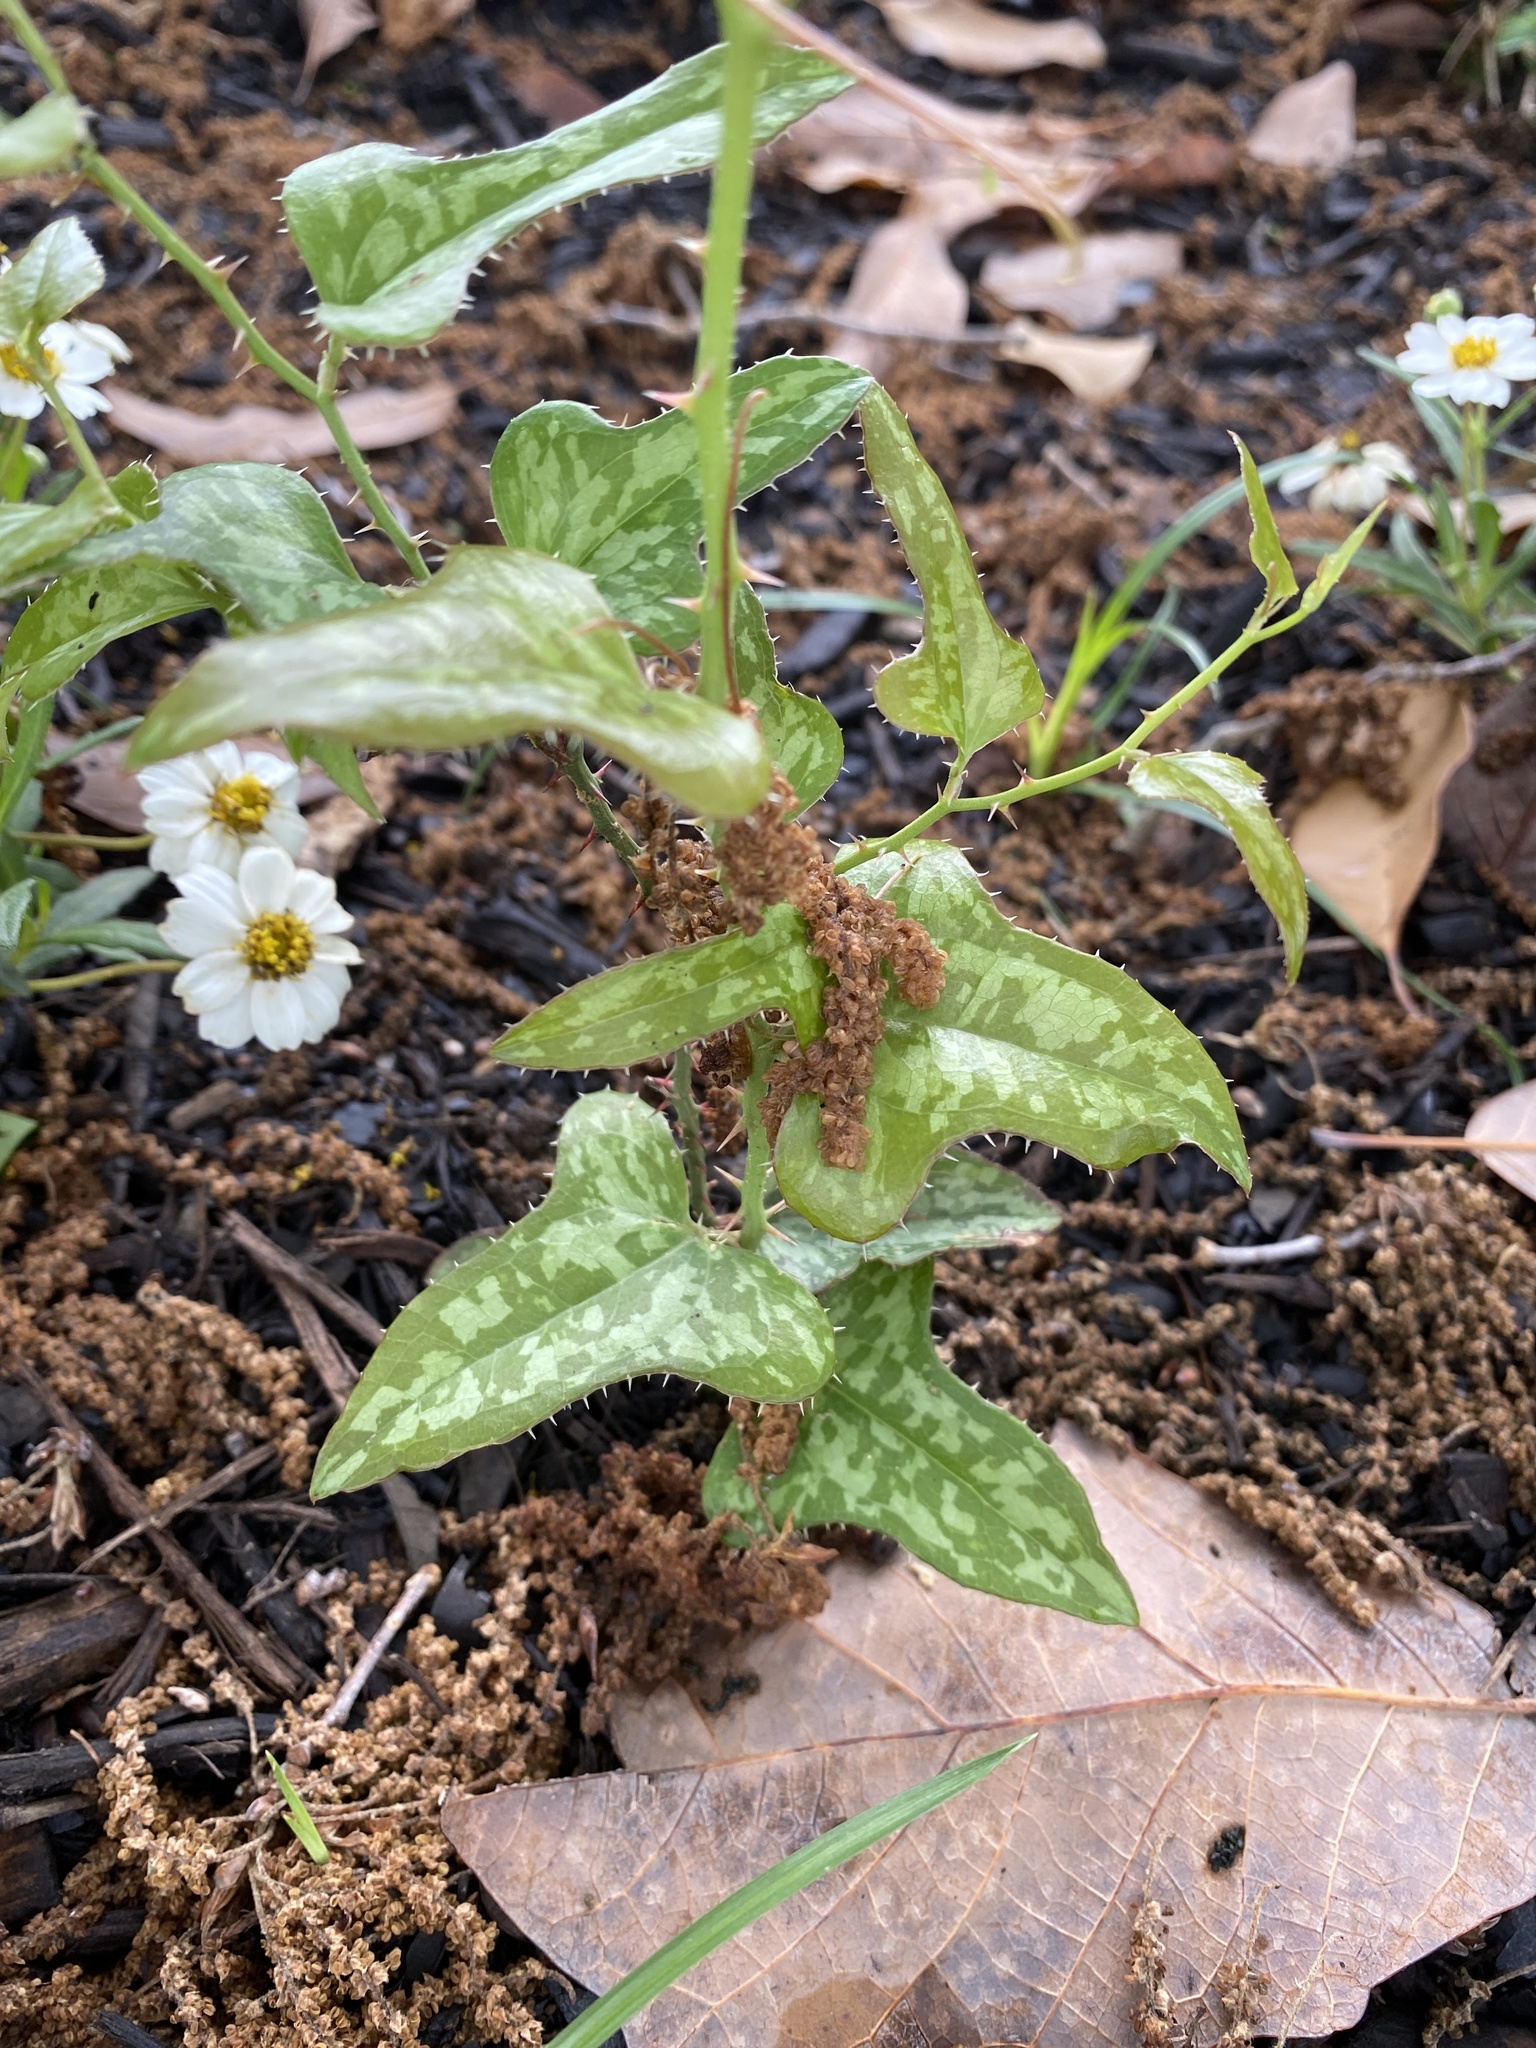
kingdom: Plantae
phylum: Tracheophyta
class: Liliopsida
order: Liliales
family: Smilacaceae
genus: Smilax
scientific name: Smilax bona-nox
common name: Catbrier
